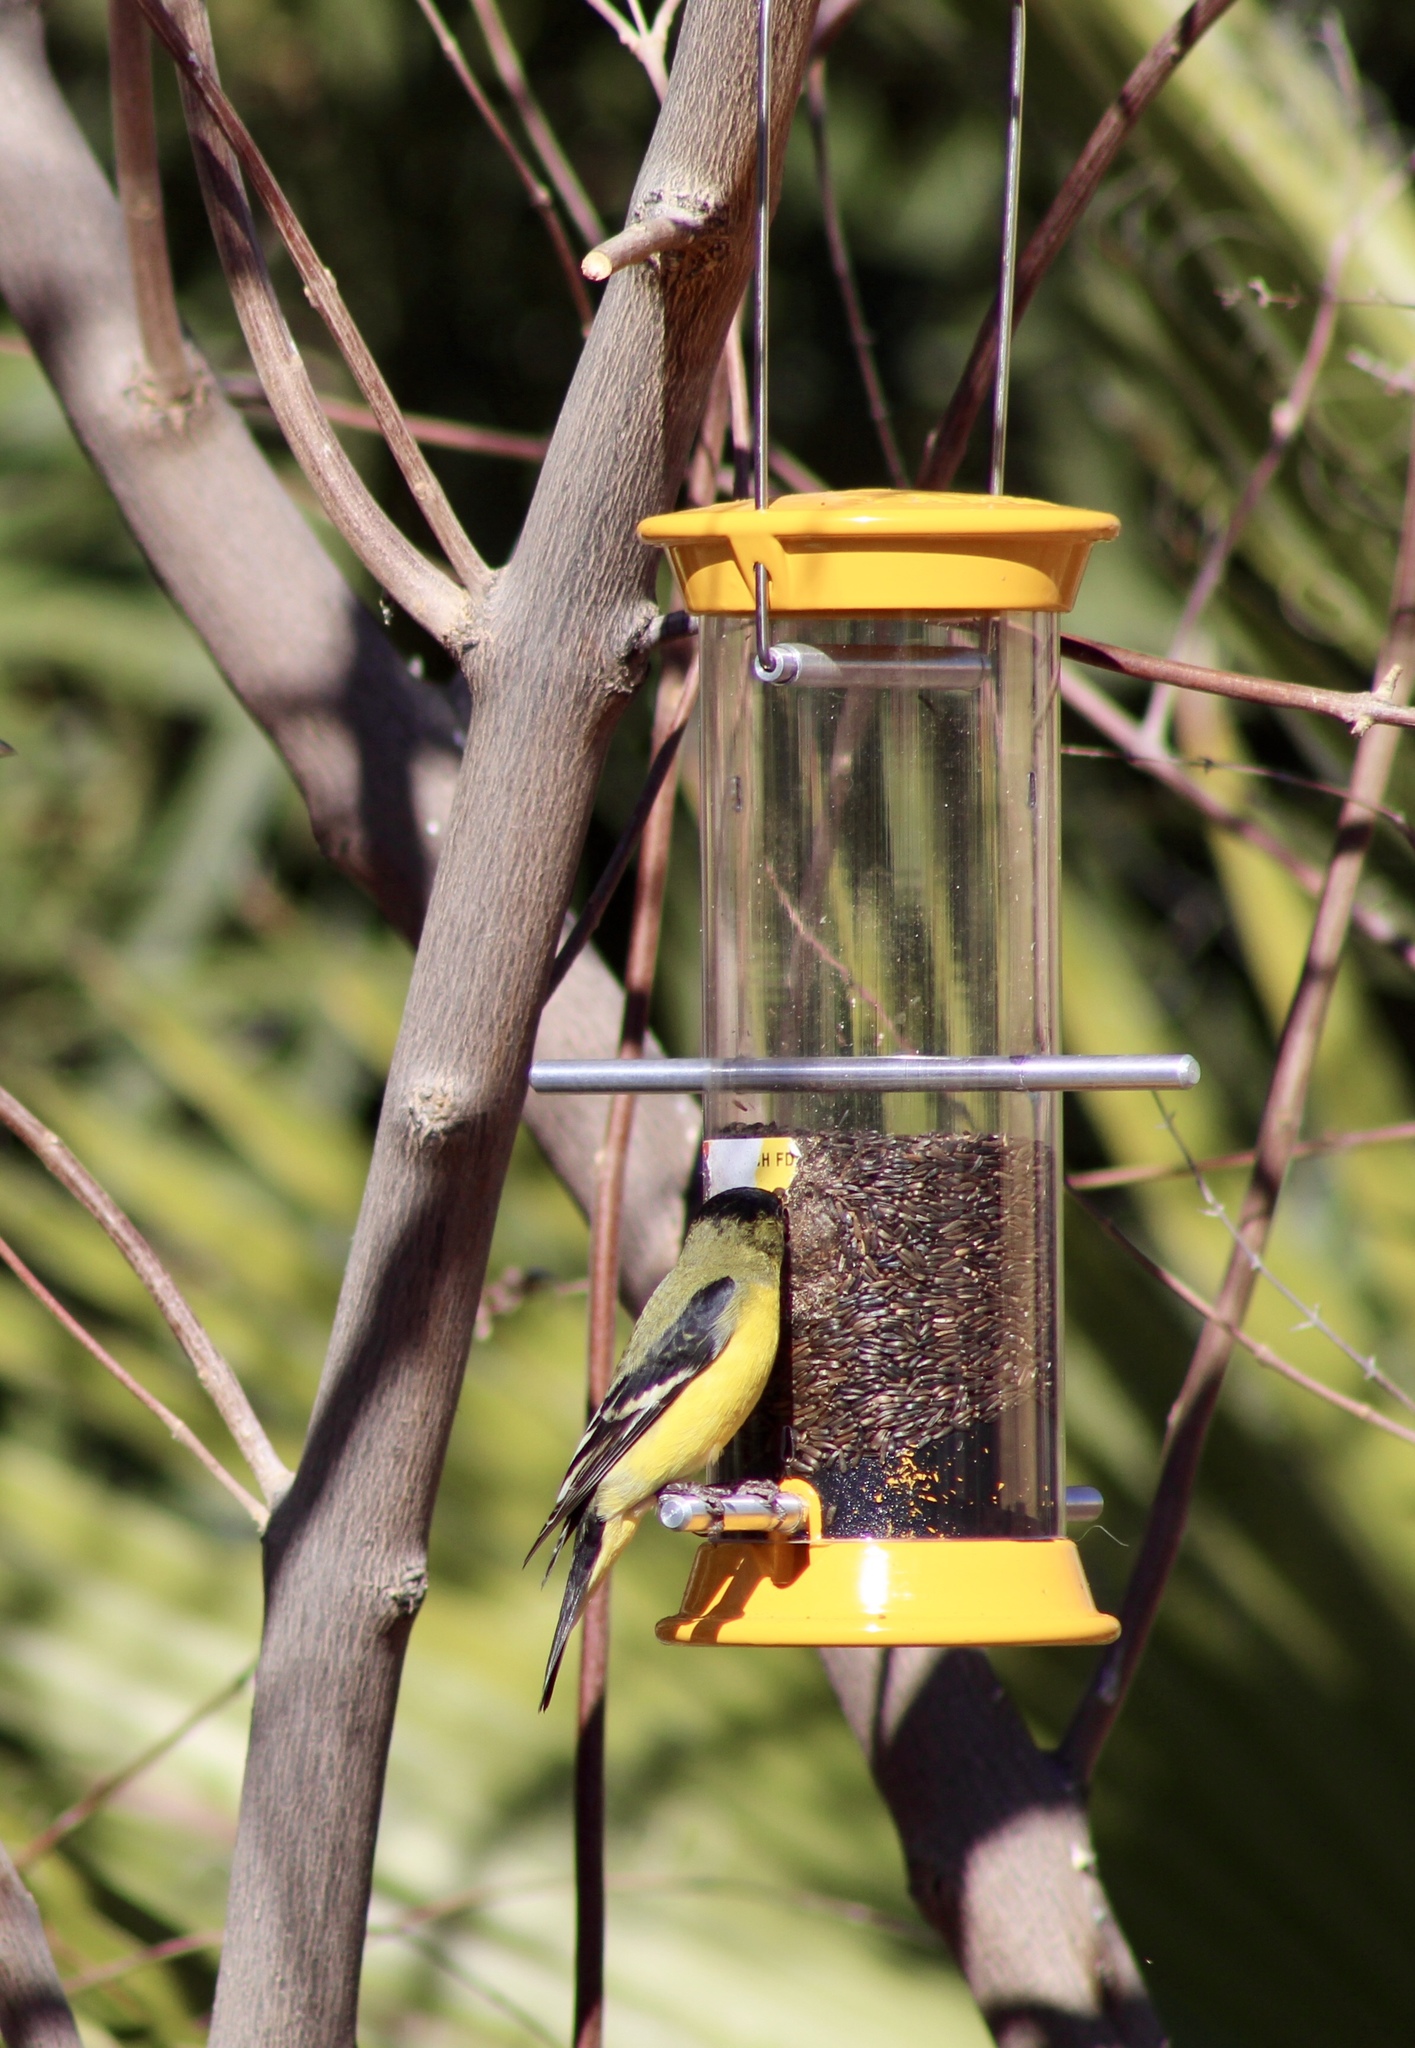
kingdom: Animalia
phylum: Chordata
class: Aves
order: Passeriformes
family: Fringillidae
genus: Spinus
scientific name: Spinus psaltria
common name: Lesser goldfinch
